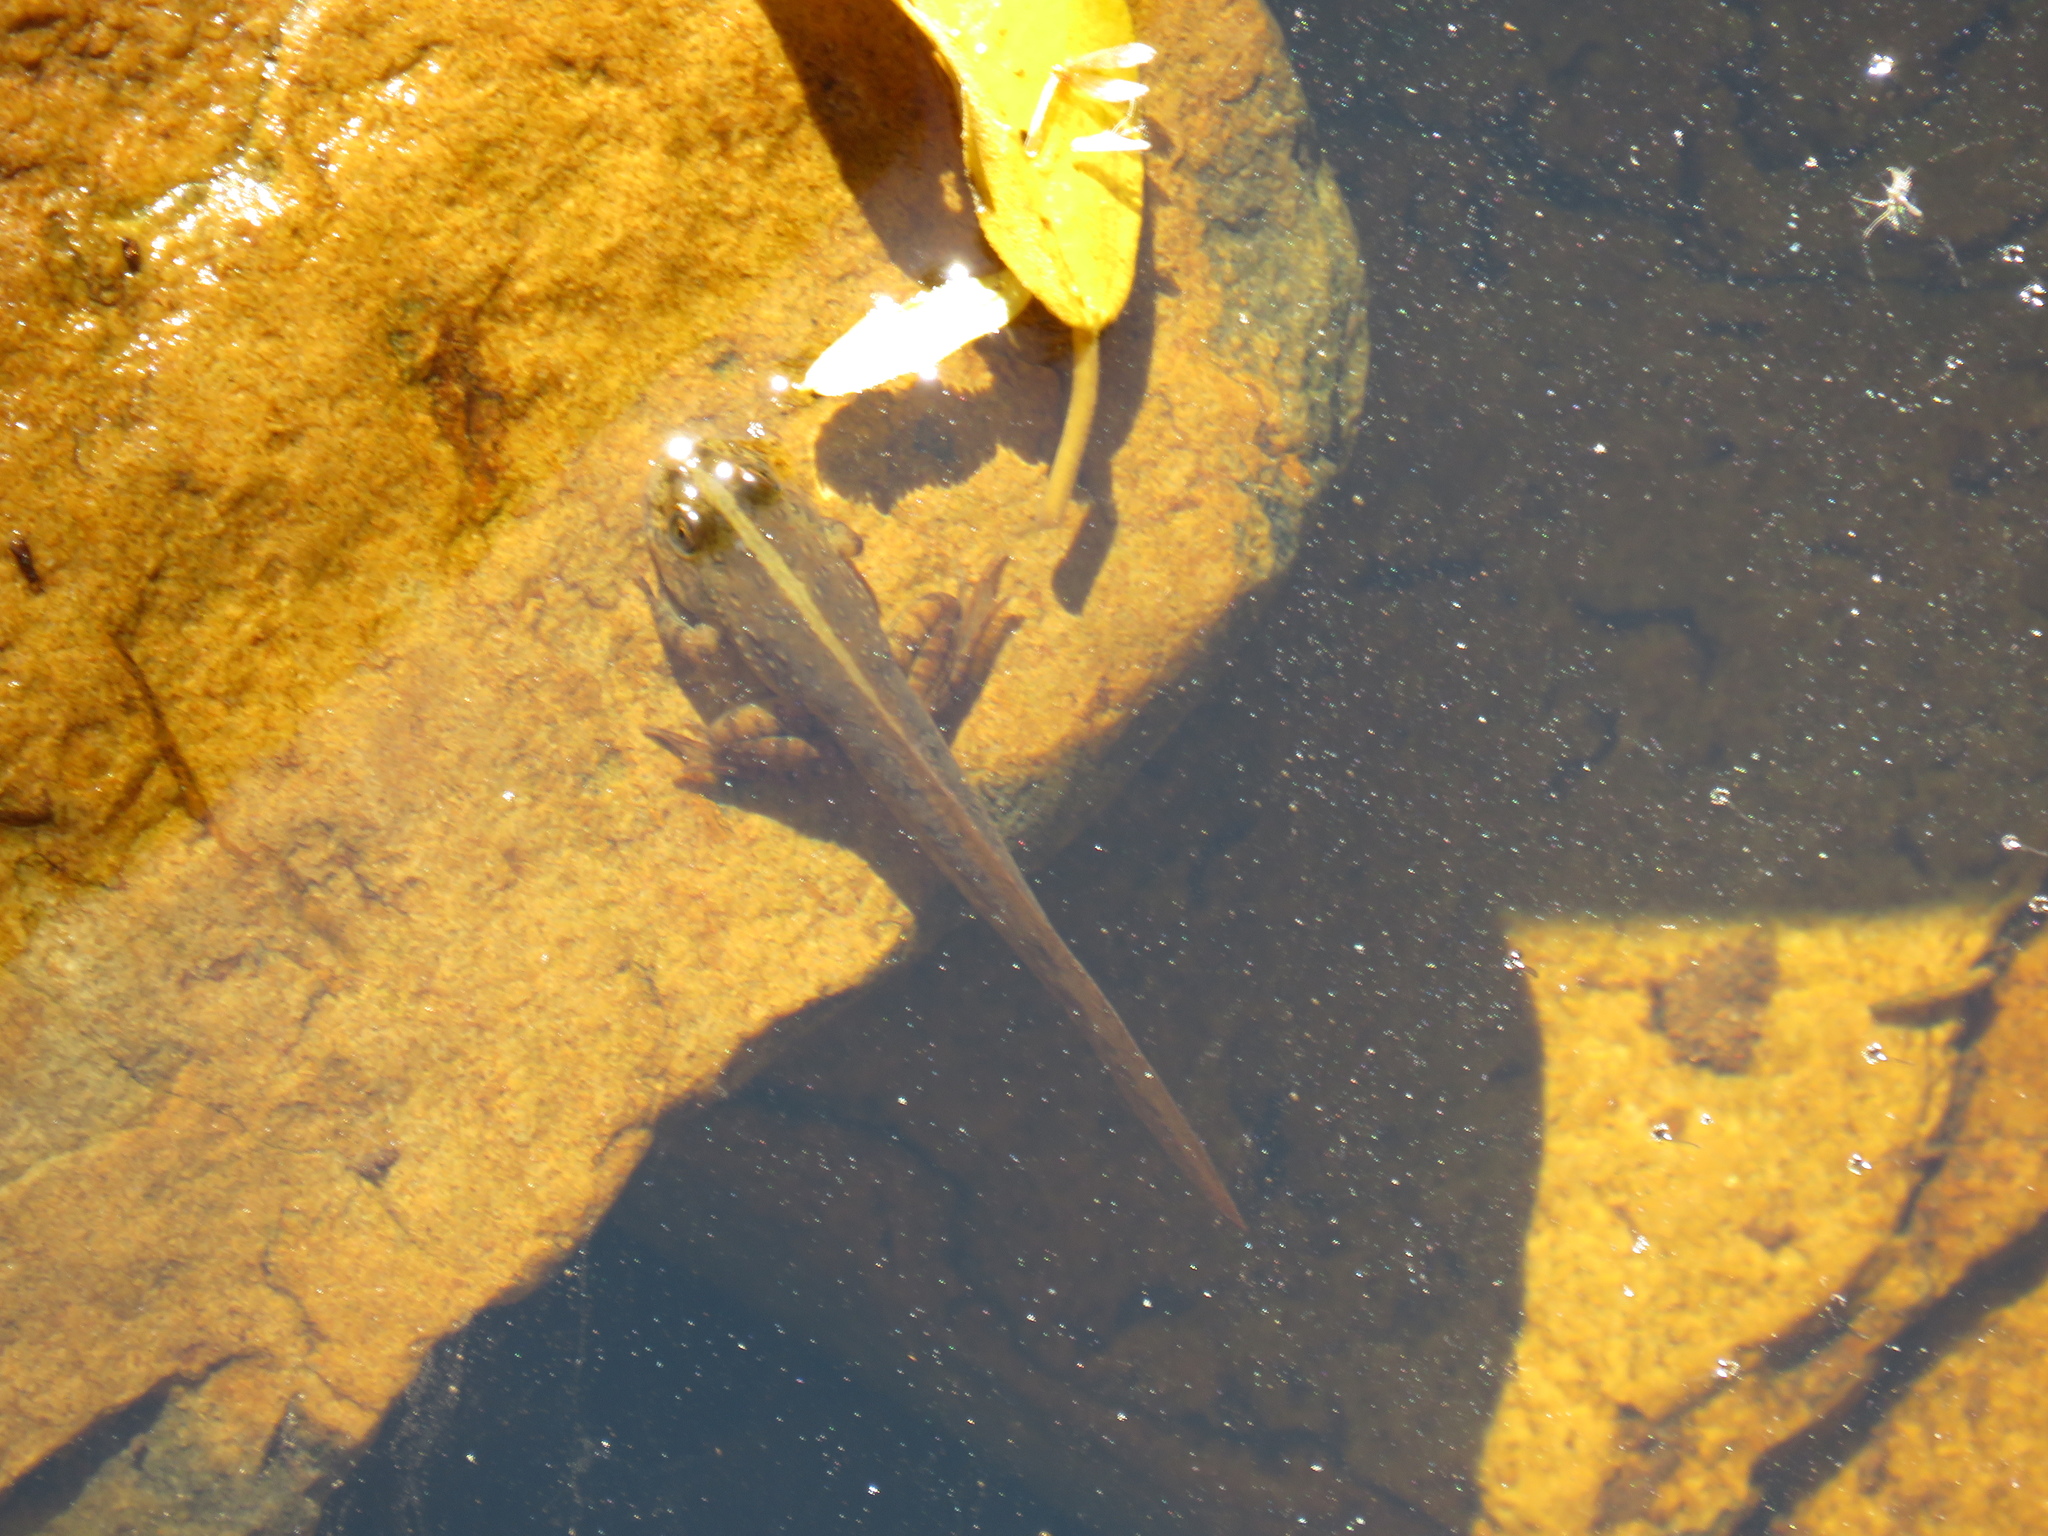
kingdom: Animalia
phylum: Chordata
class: Amphibia
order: Anura
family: Pyxicephalidae
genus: Amietia
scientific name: Amietia fuscigula
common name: Cape rana
